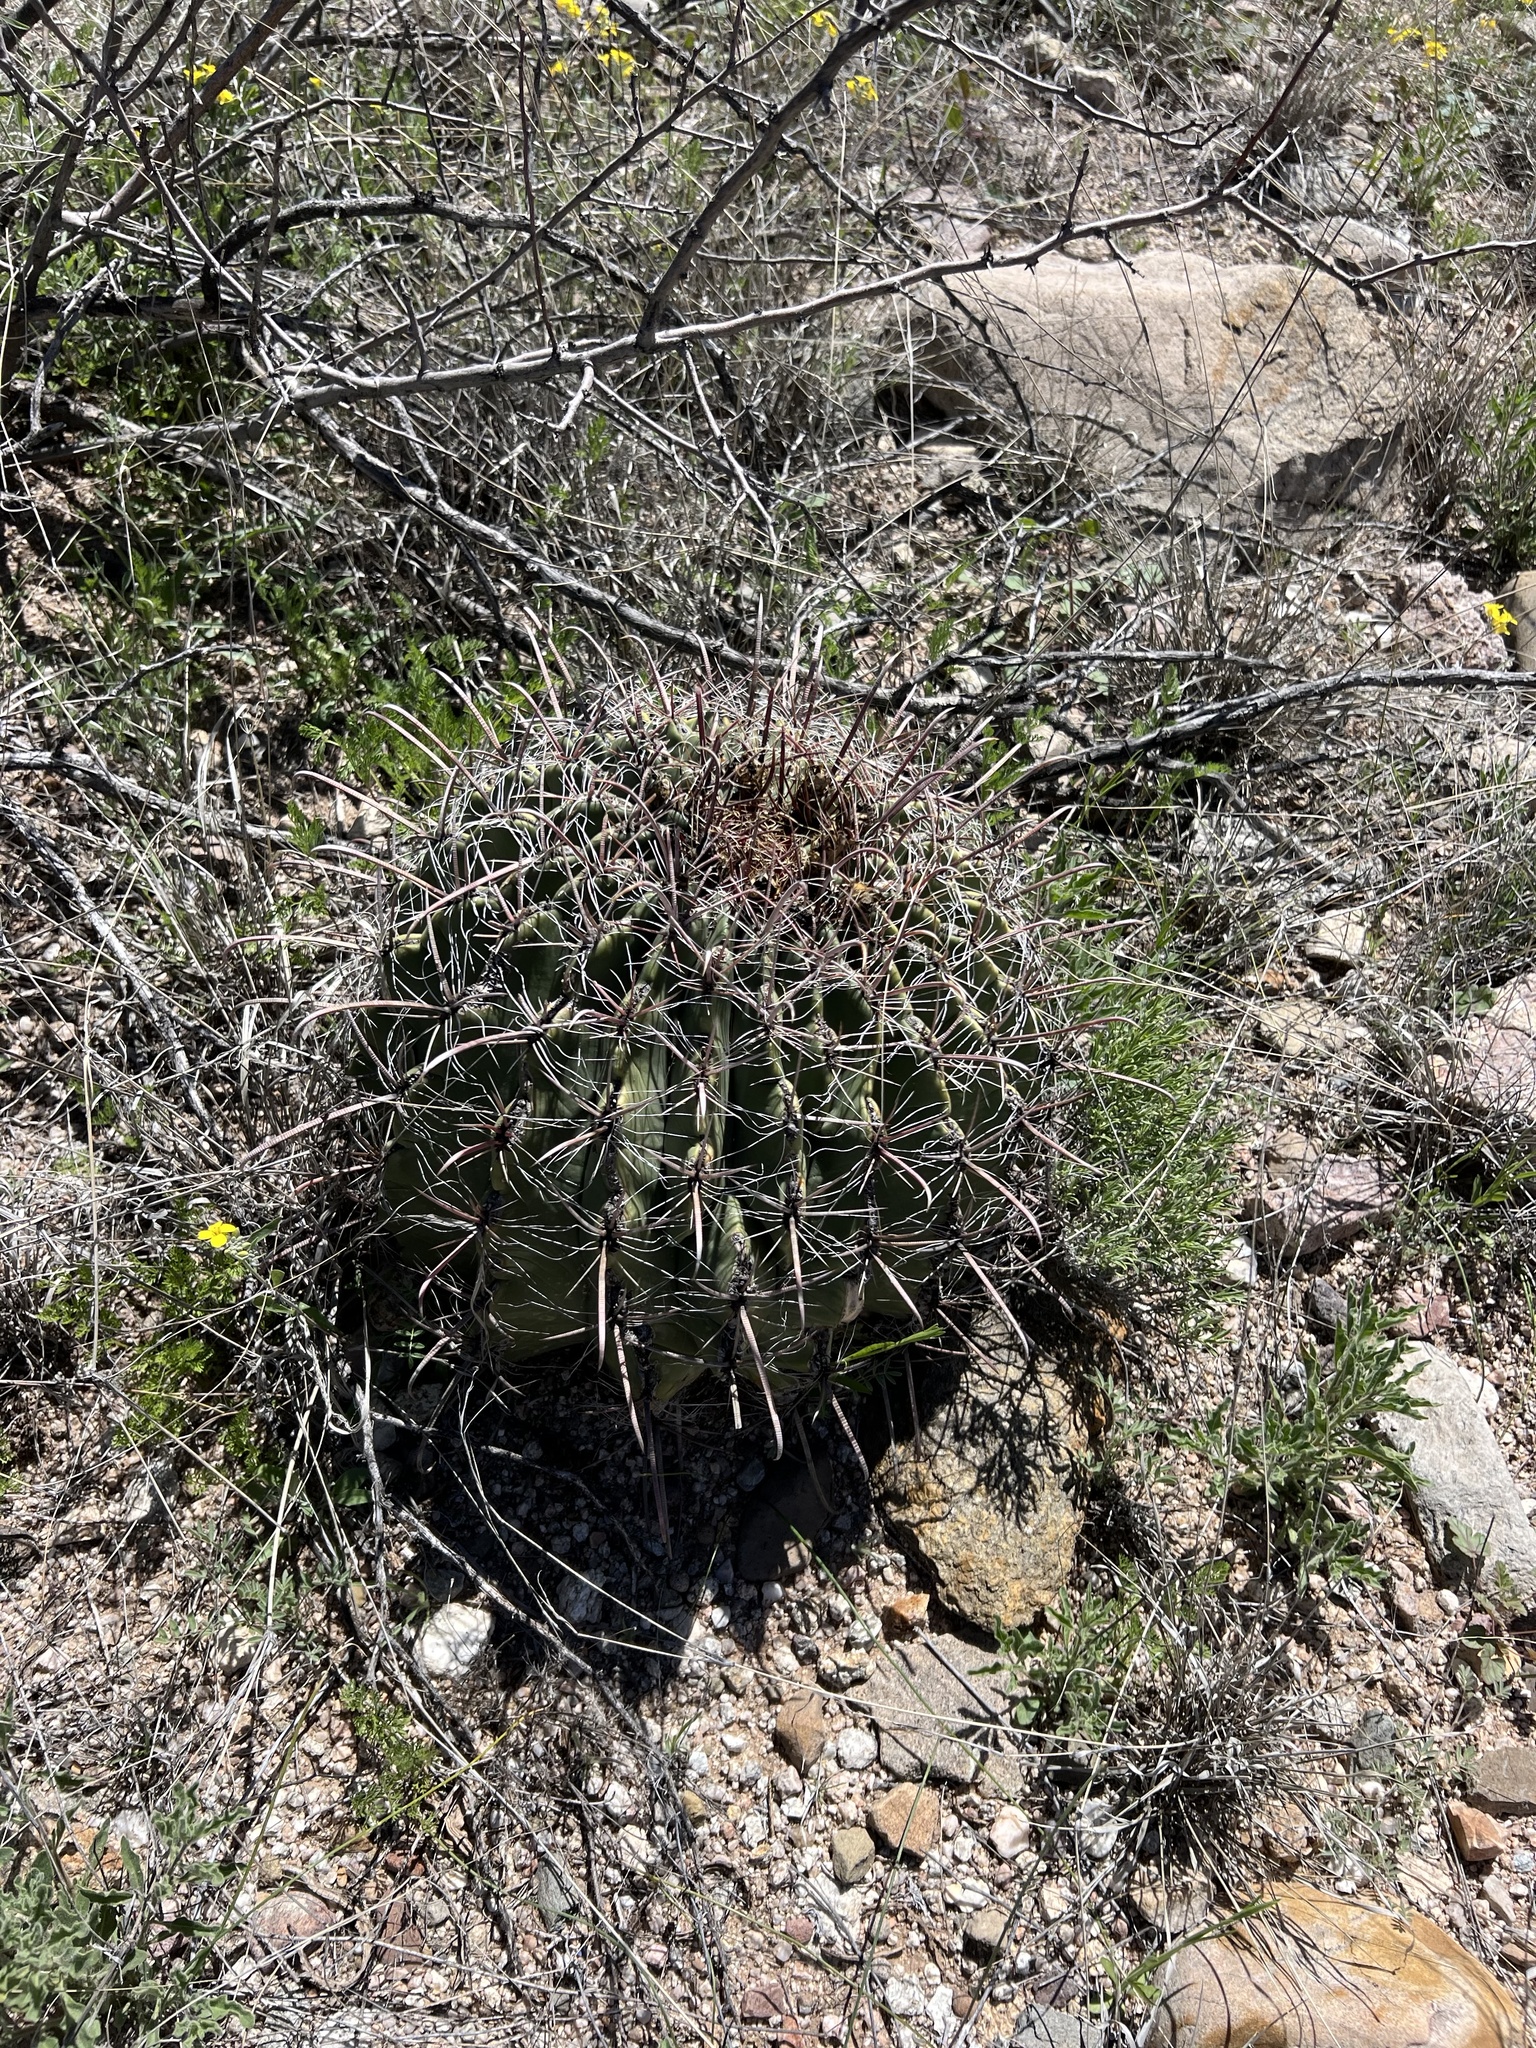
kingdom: Plantae
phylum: Tracheophyta
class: Magnoliopsida
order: Caryophyllales
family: Cactaceae
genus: Ferocactus
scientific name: Ferocactus wislizeni
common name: Candy barrel cactus
